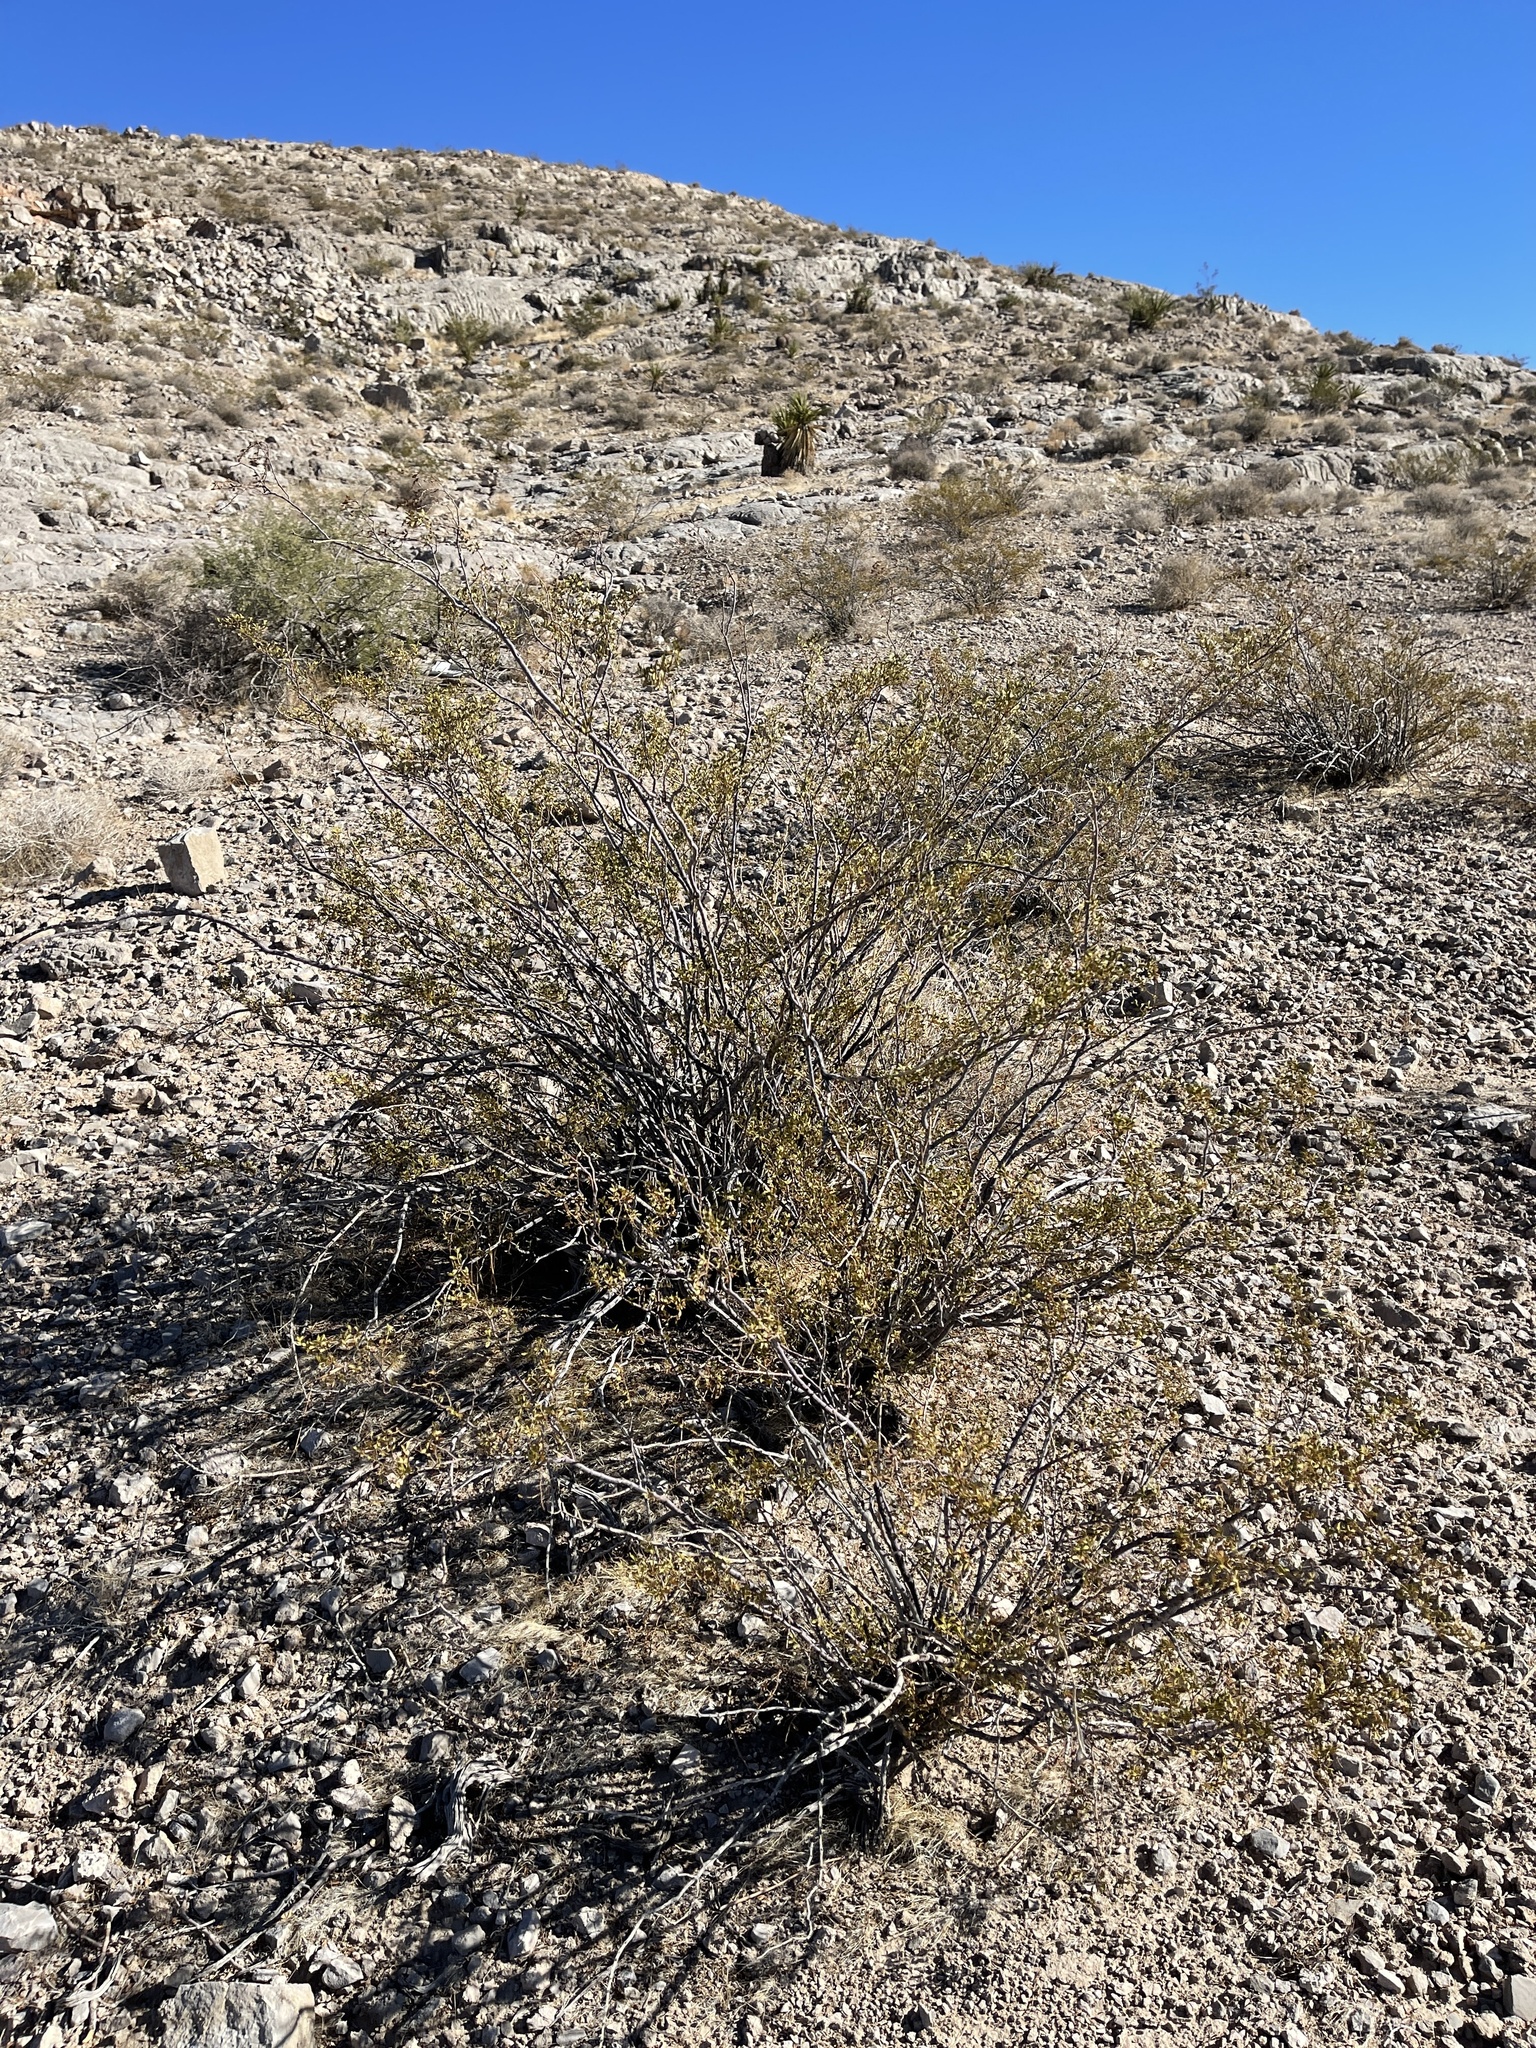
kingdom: Plantae
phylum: Tracheophyta
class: Magnoliopsida
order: Zygophyllales
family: Zygophyllaceae
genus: Larrea
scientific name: Larrea tridentata
